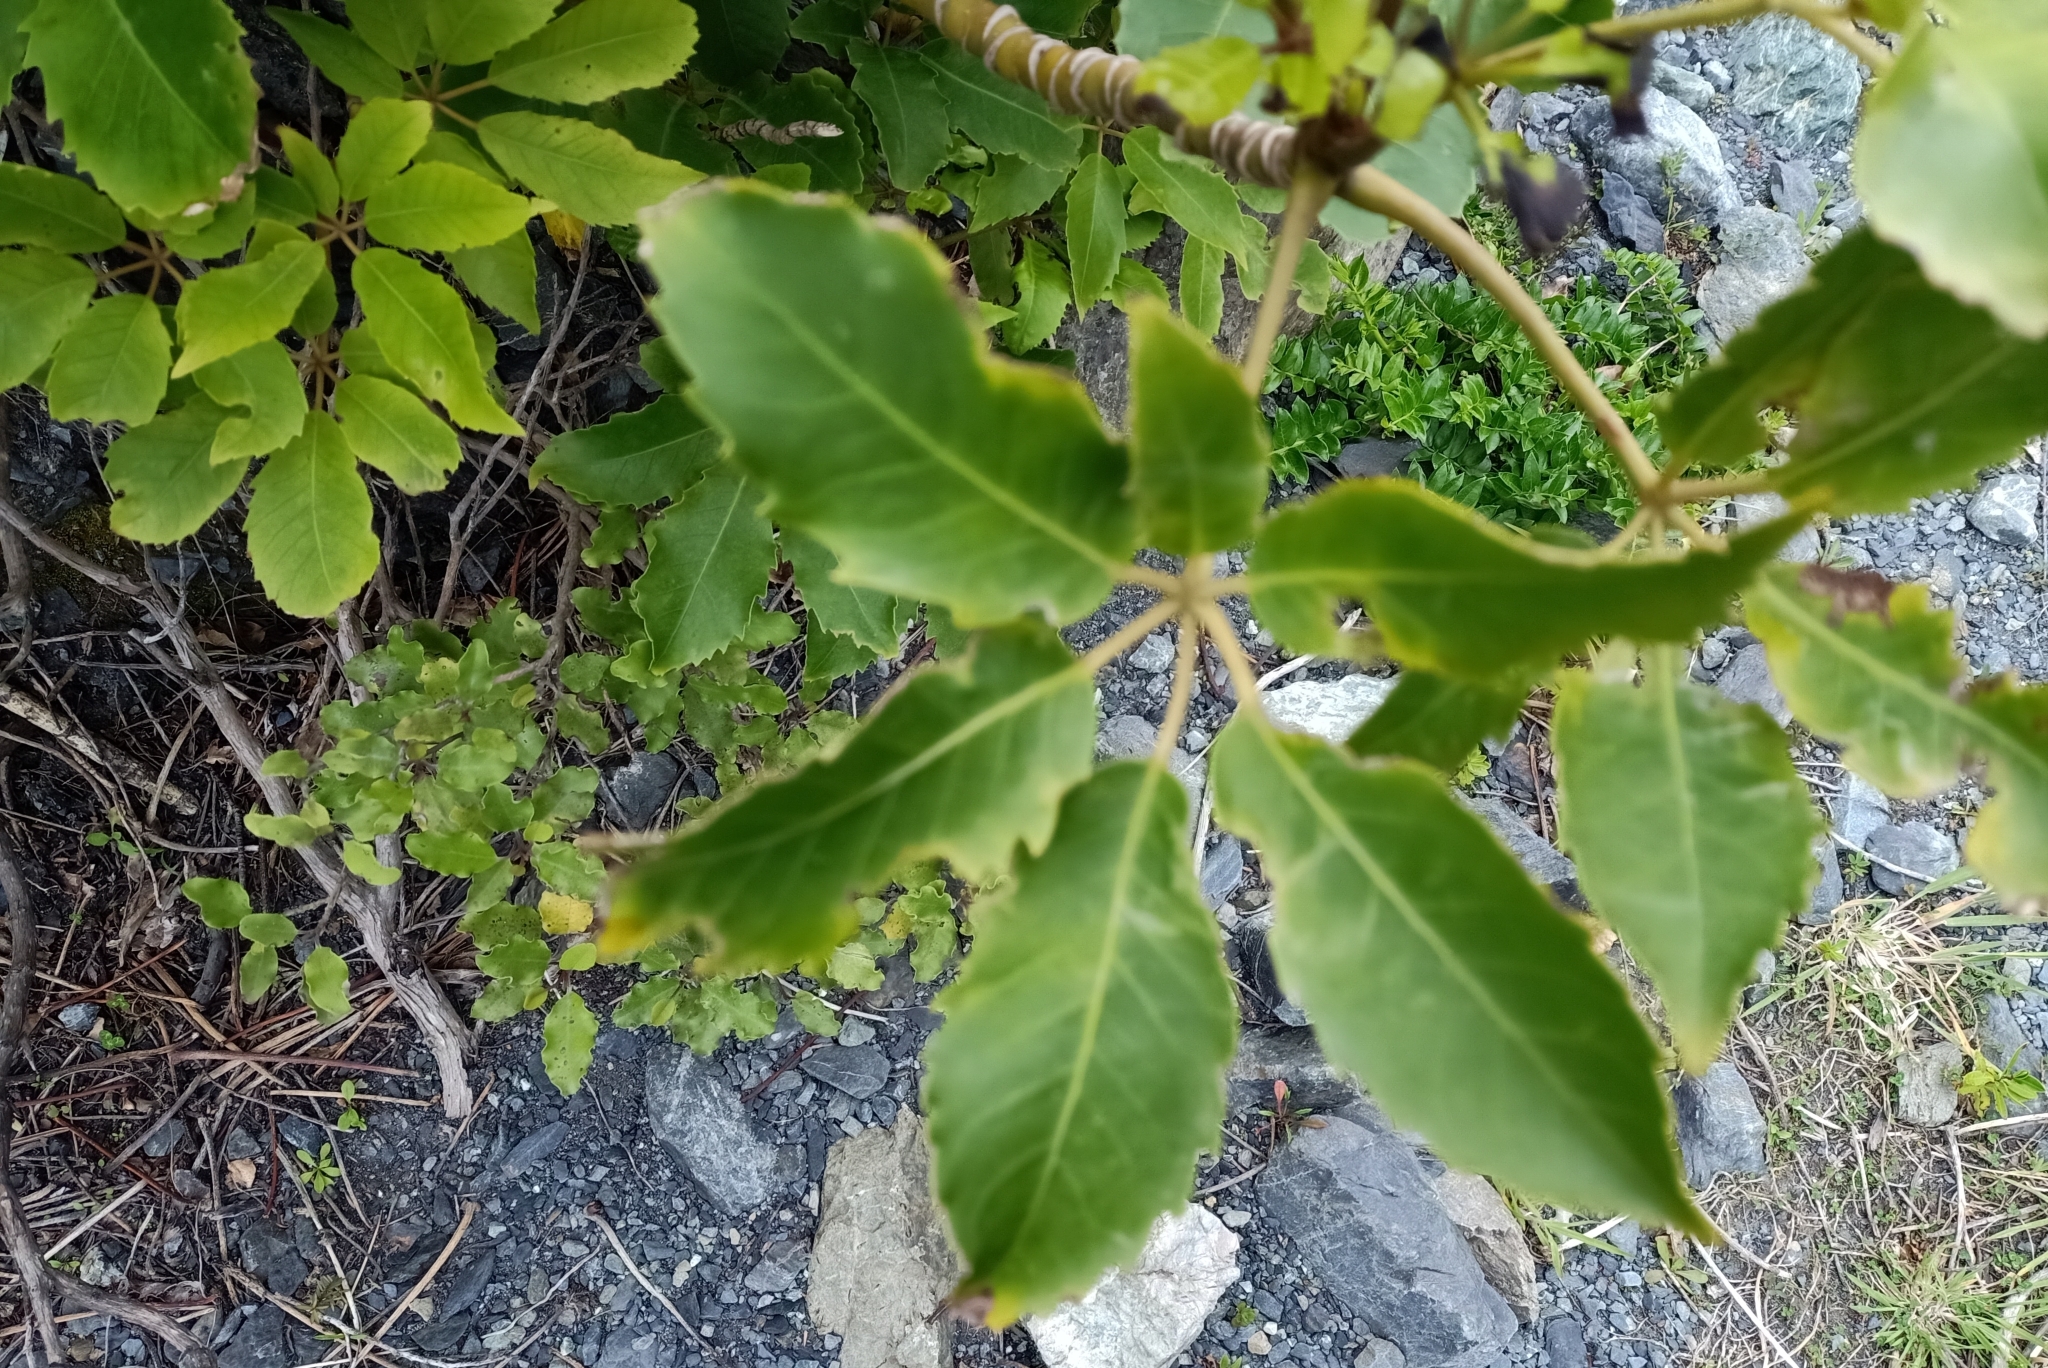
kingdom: Plantae
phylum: Tracheophyta
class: Magnoliopsida
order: Apiales
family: Araliaceae
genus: Neopanax
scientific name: Neopanax arboreus
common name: Five-fingers
